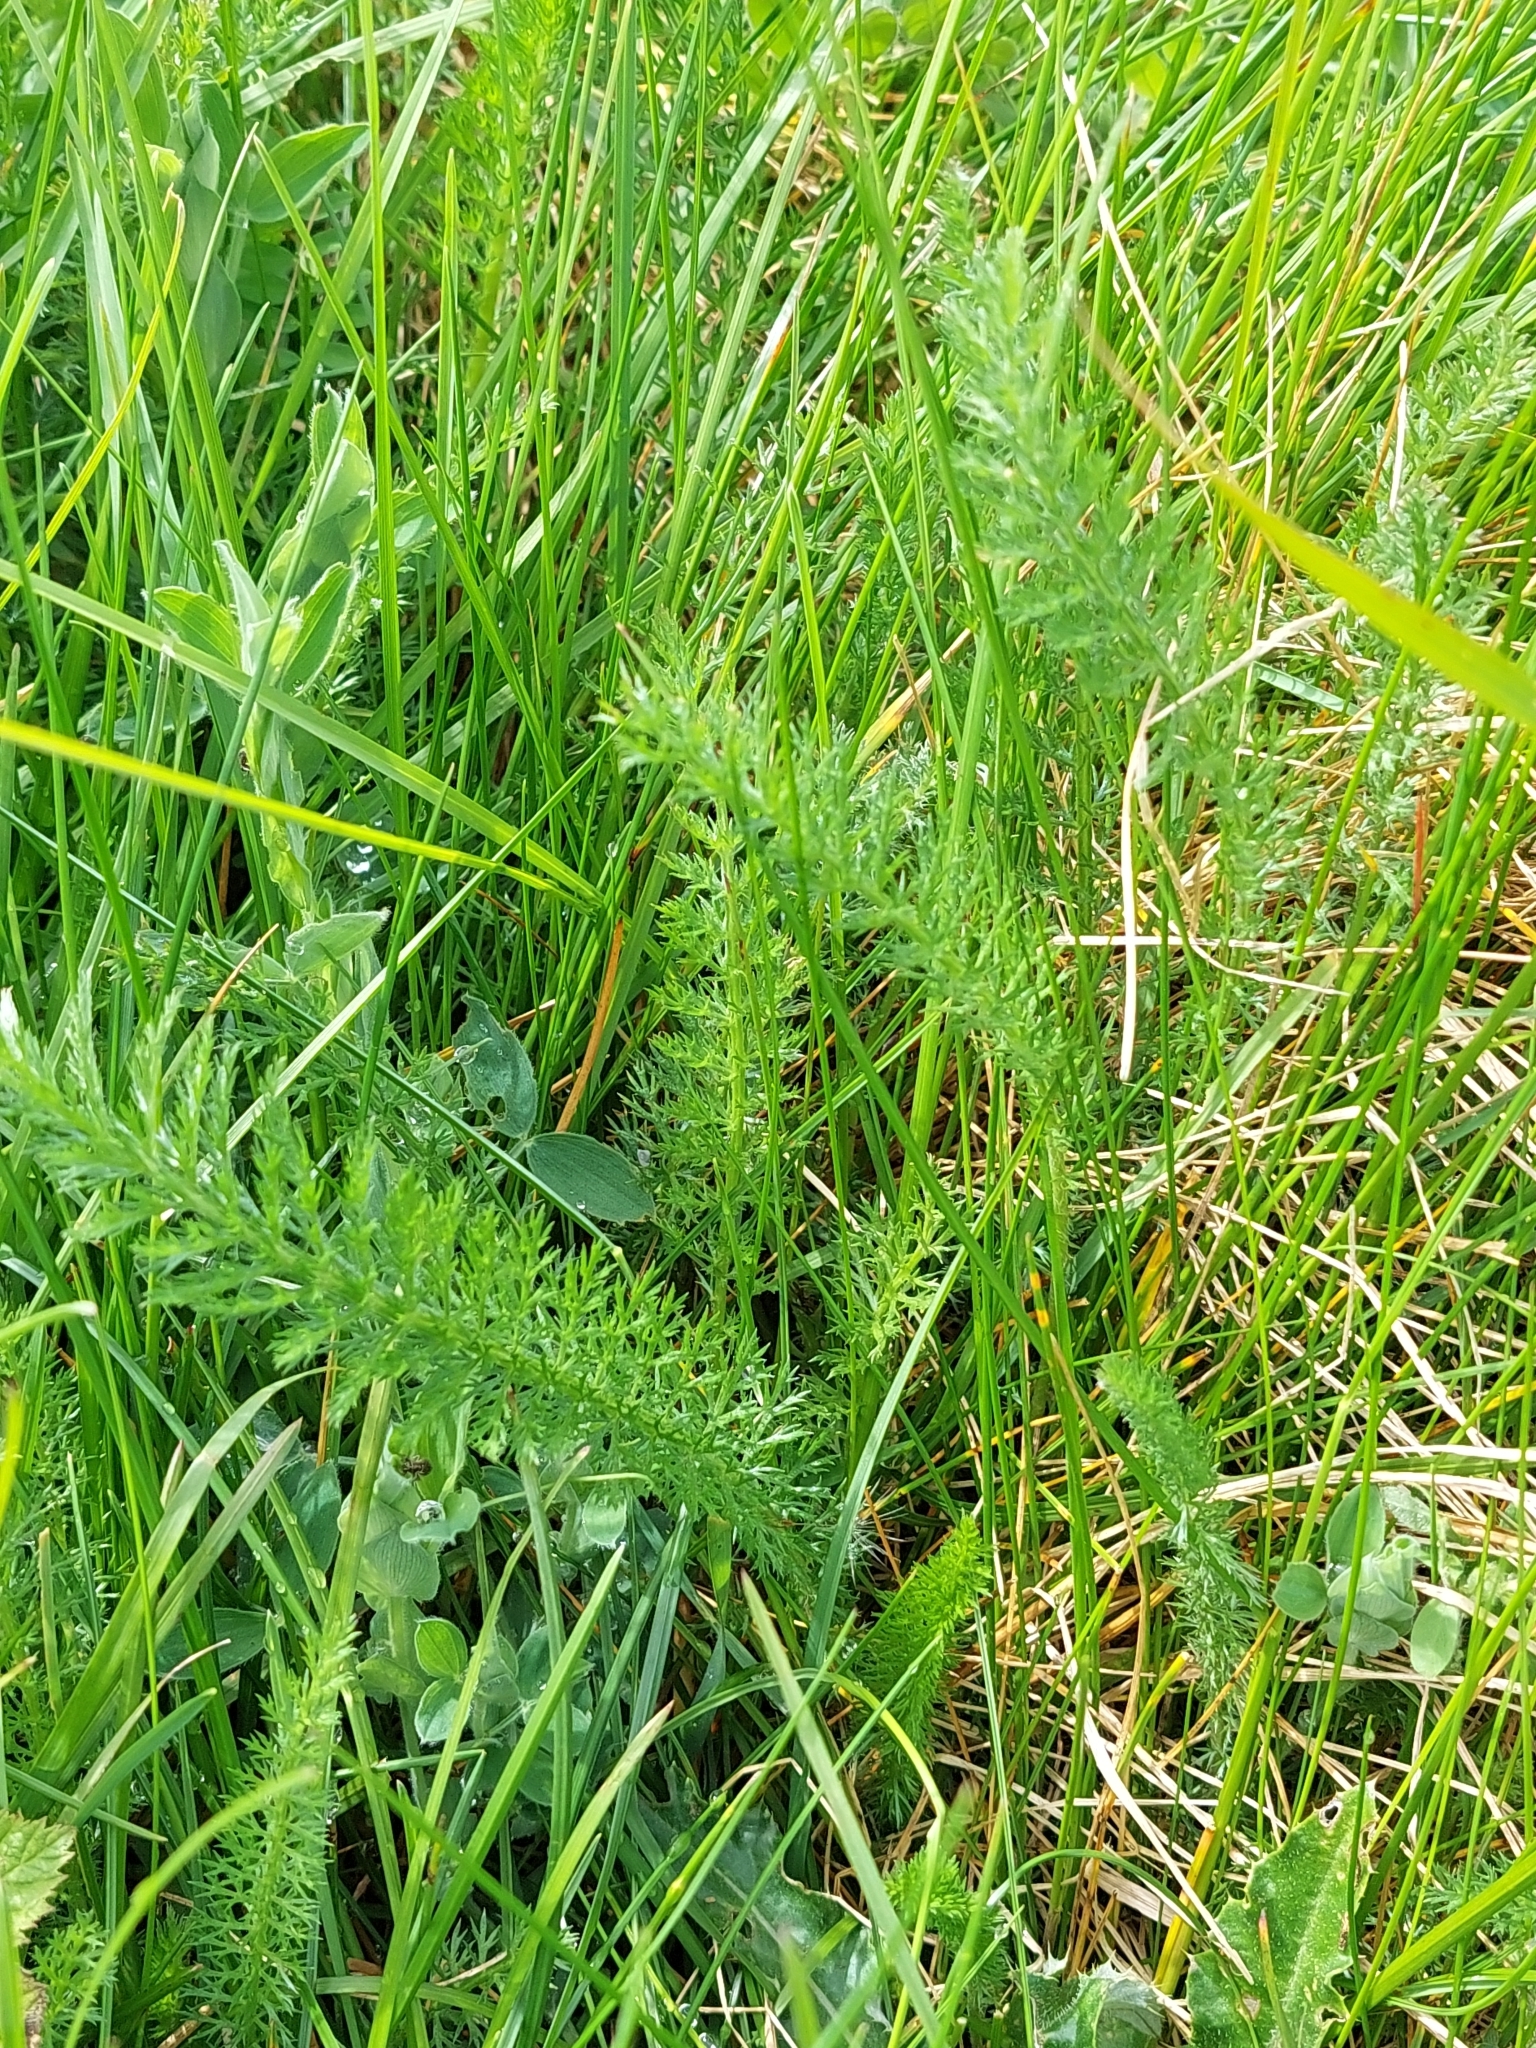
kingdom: Plantae
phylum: Tracheophyta
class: Magnoliopsida
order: Asterales
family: Asteraceae
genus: Achillea
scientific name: Achillea millefolium
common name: Yarrow
